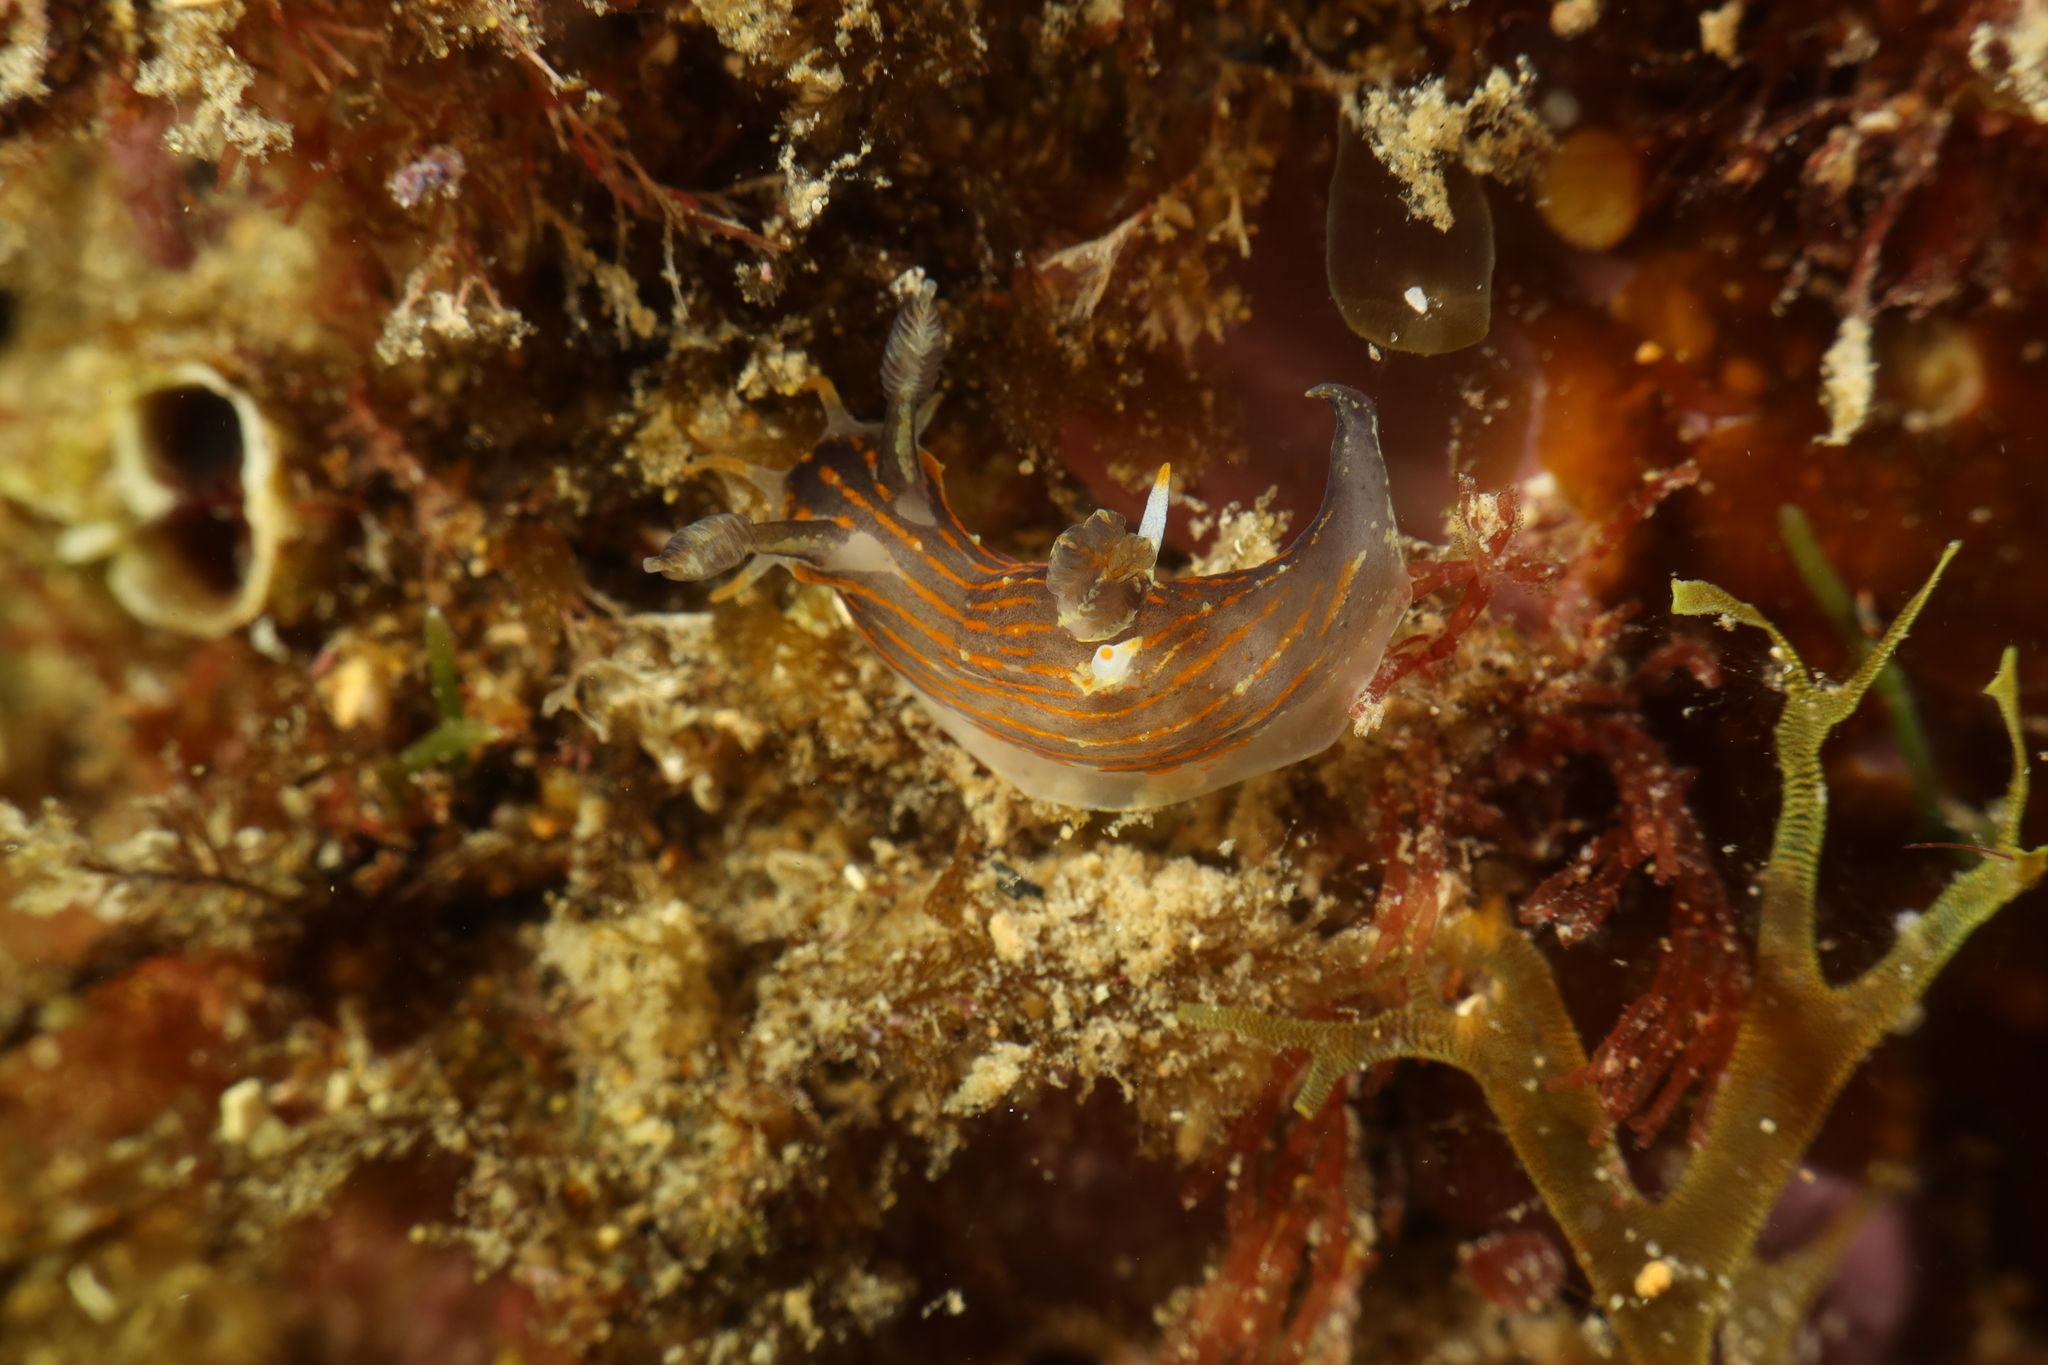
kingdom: Animalia
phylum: Mollusca
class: Gastropoda
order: Nudibranchia
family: Polyceridae
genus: Polycera
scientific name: Polycera quadrilineata
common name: Four-striped polycera
